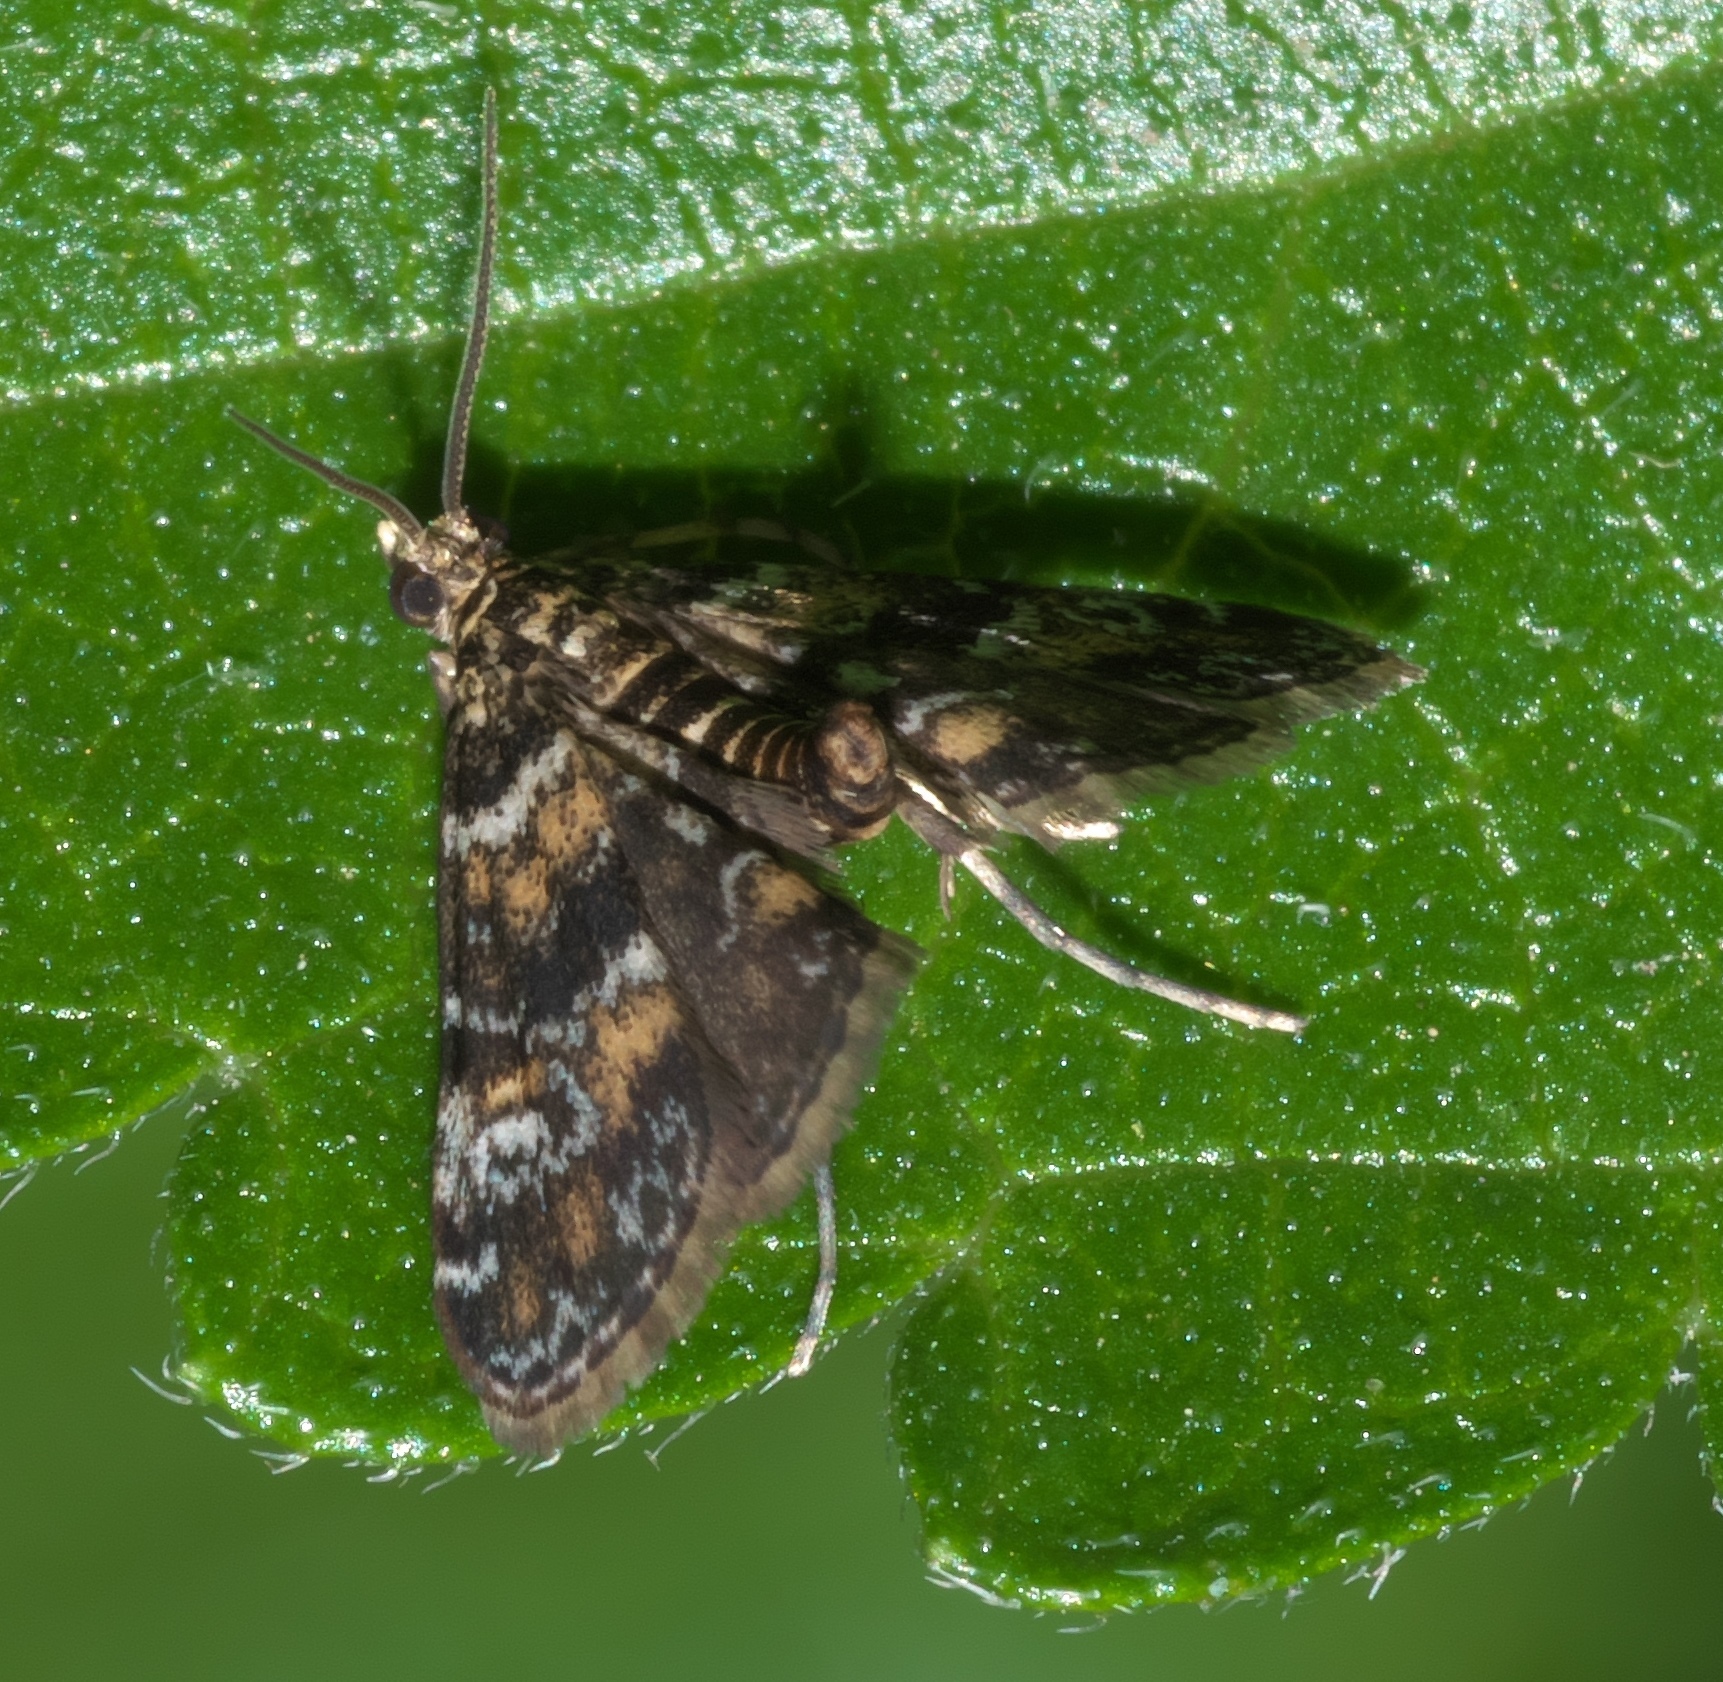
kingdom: Animalia
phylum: Arthropoda
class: Insecta
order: Lepidoptera
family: Crambidae
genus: Elophila
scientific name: Elophila obliteralis
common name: Waterlily leafcutter moth
